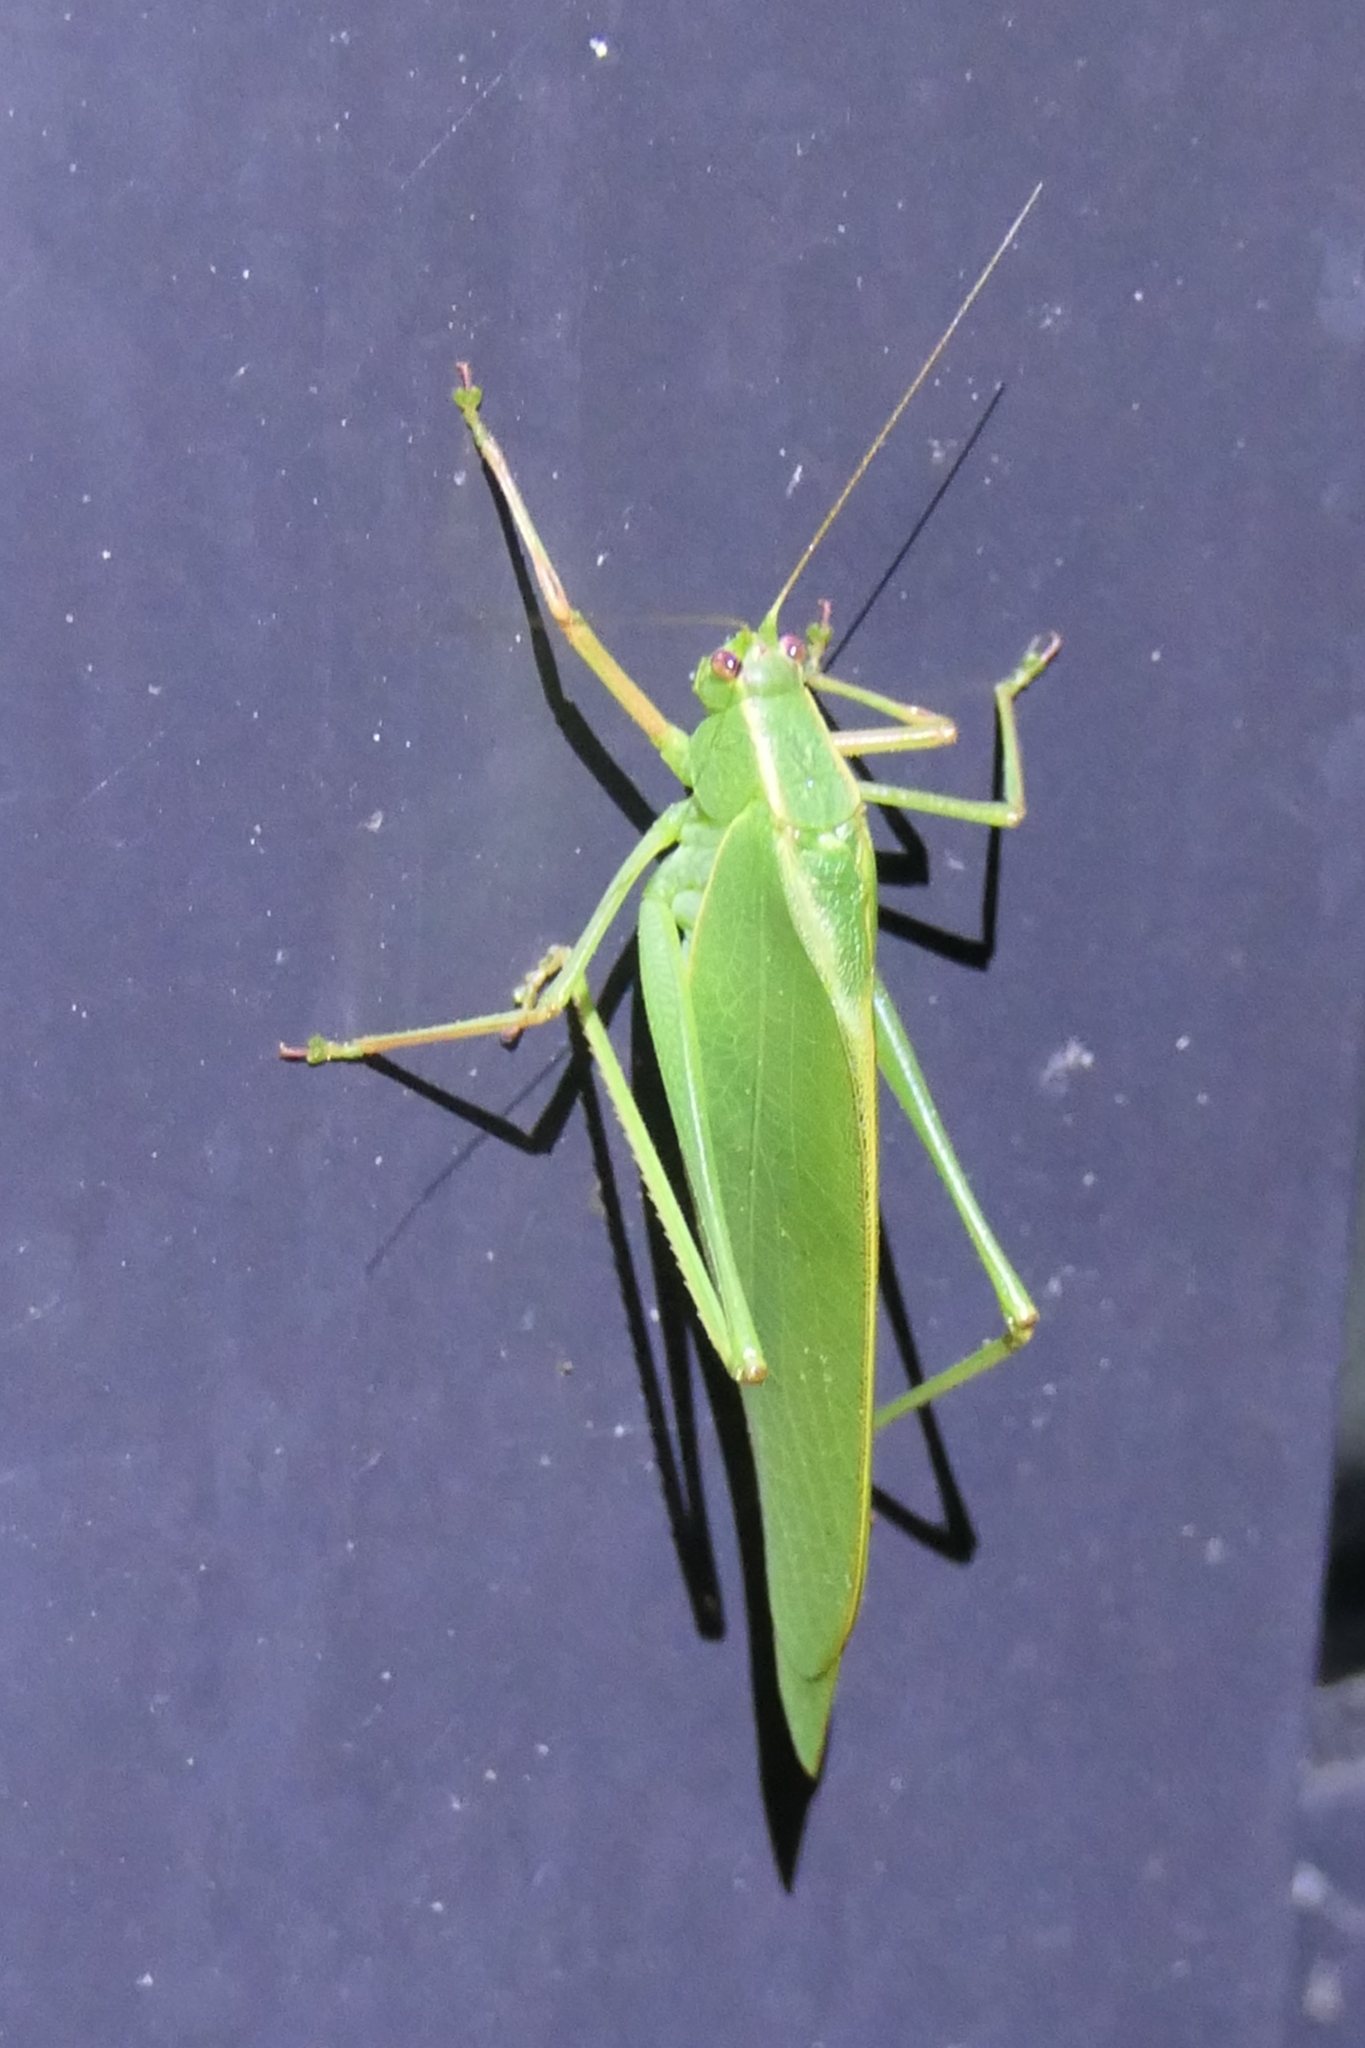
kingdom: Animalia
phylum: Arthropoda
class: Insecta
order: Orthoptera
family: Tettigoniidae
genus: Caedicia
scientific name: Caedicia simplex
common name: Common garden katydid
